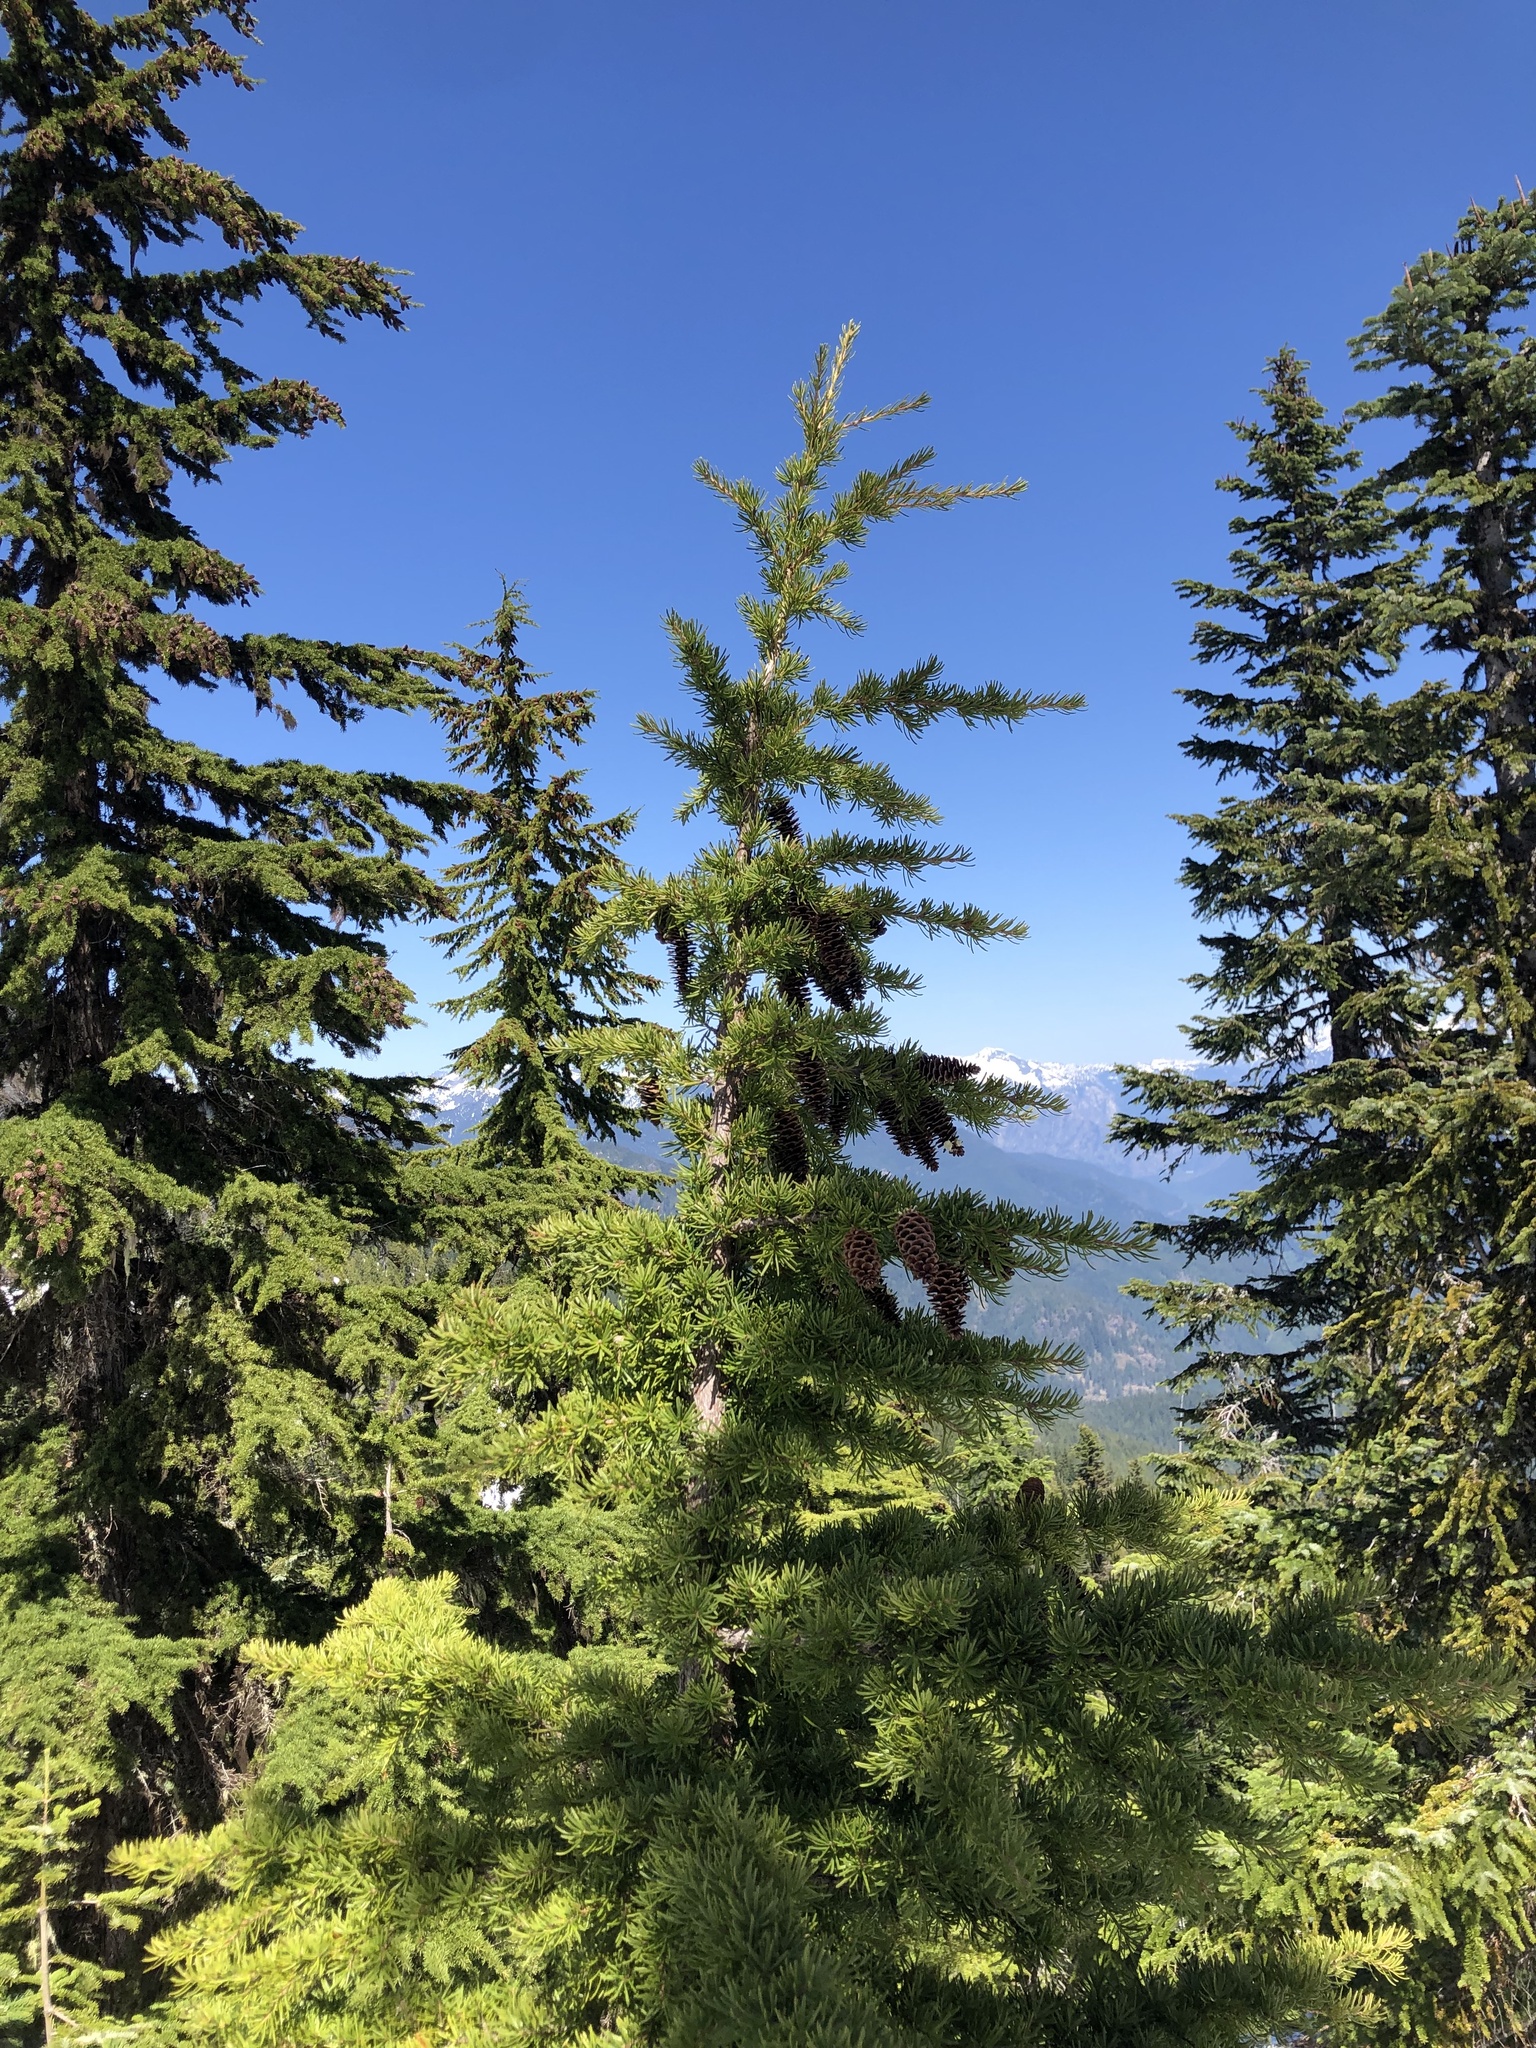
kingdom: Plantae
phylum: Tracheophyta
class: Pinopsida
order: Pinales
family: Pinaceae
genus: Tsuga
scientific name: Tsuga mertensiana
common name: Mountain hemlock
